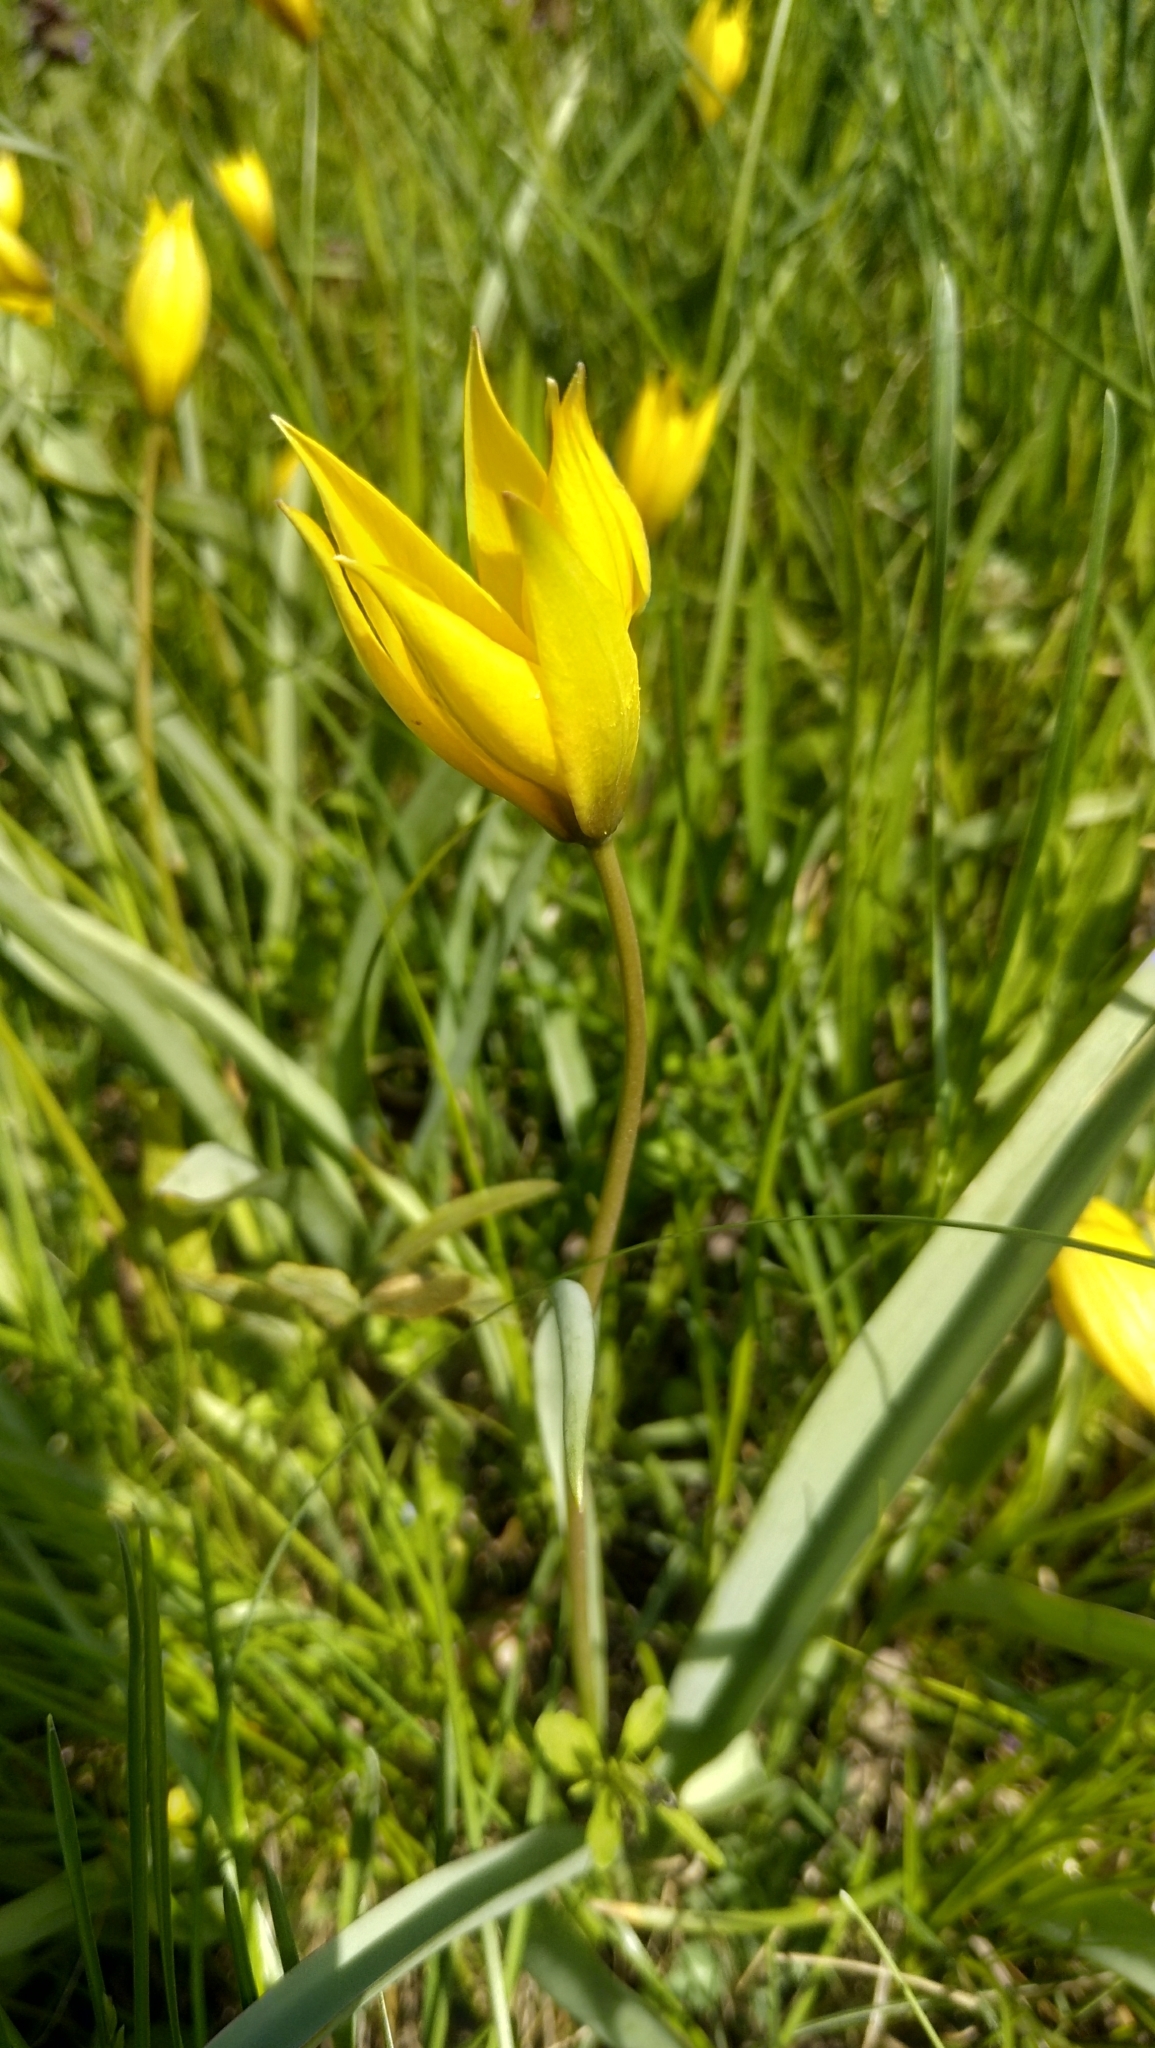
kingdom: Plantae
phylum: Tracheophyta
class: Liliopsida
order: Liliales
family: Liliaceae
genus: Tulipa
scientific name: Tulipa sylvestris
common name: Wild tulip
